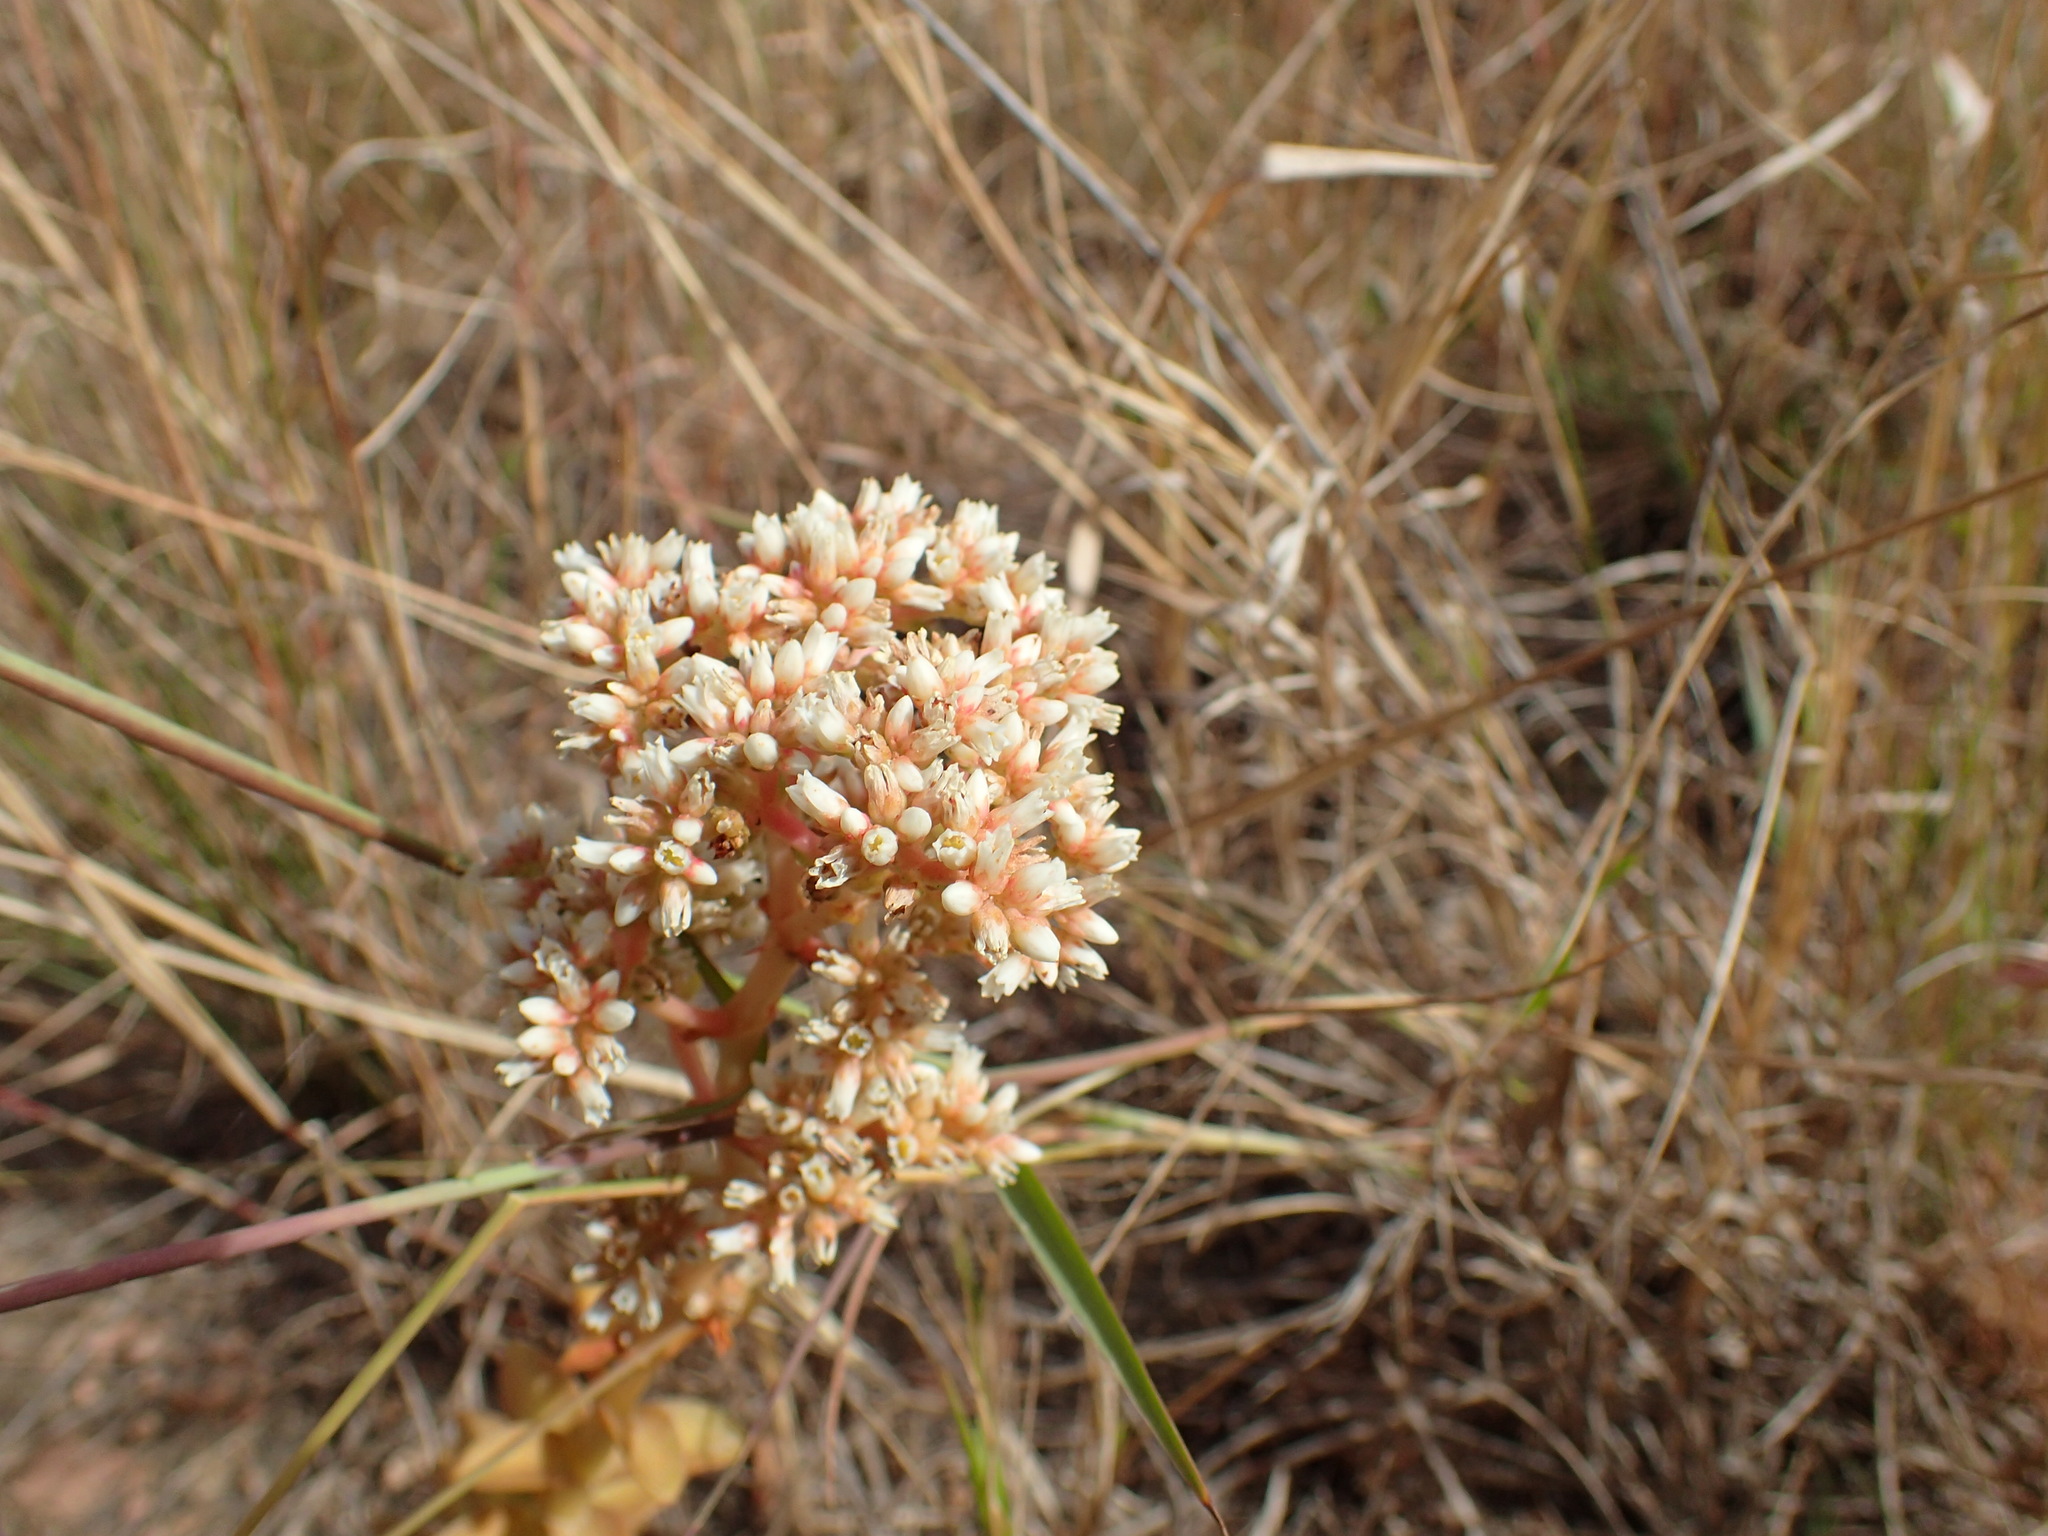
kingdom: Plantae
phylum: Tracheophyta
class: Magnoliopsida
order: Saxifragales
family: Crassulaceae
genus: Crassula
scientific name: Crassula capitella
